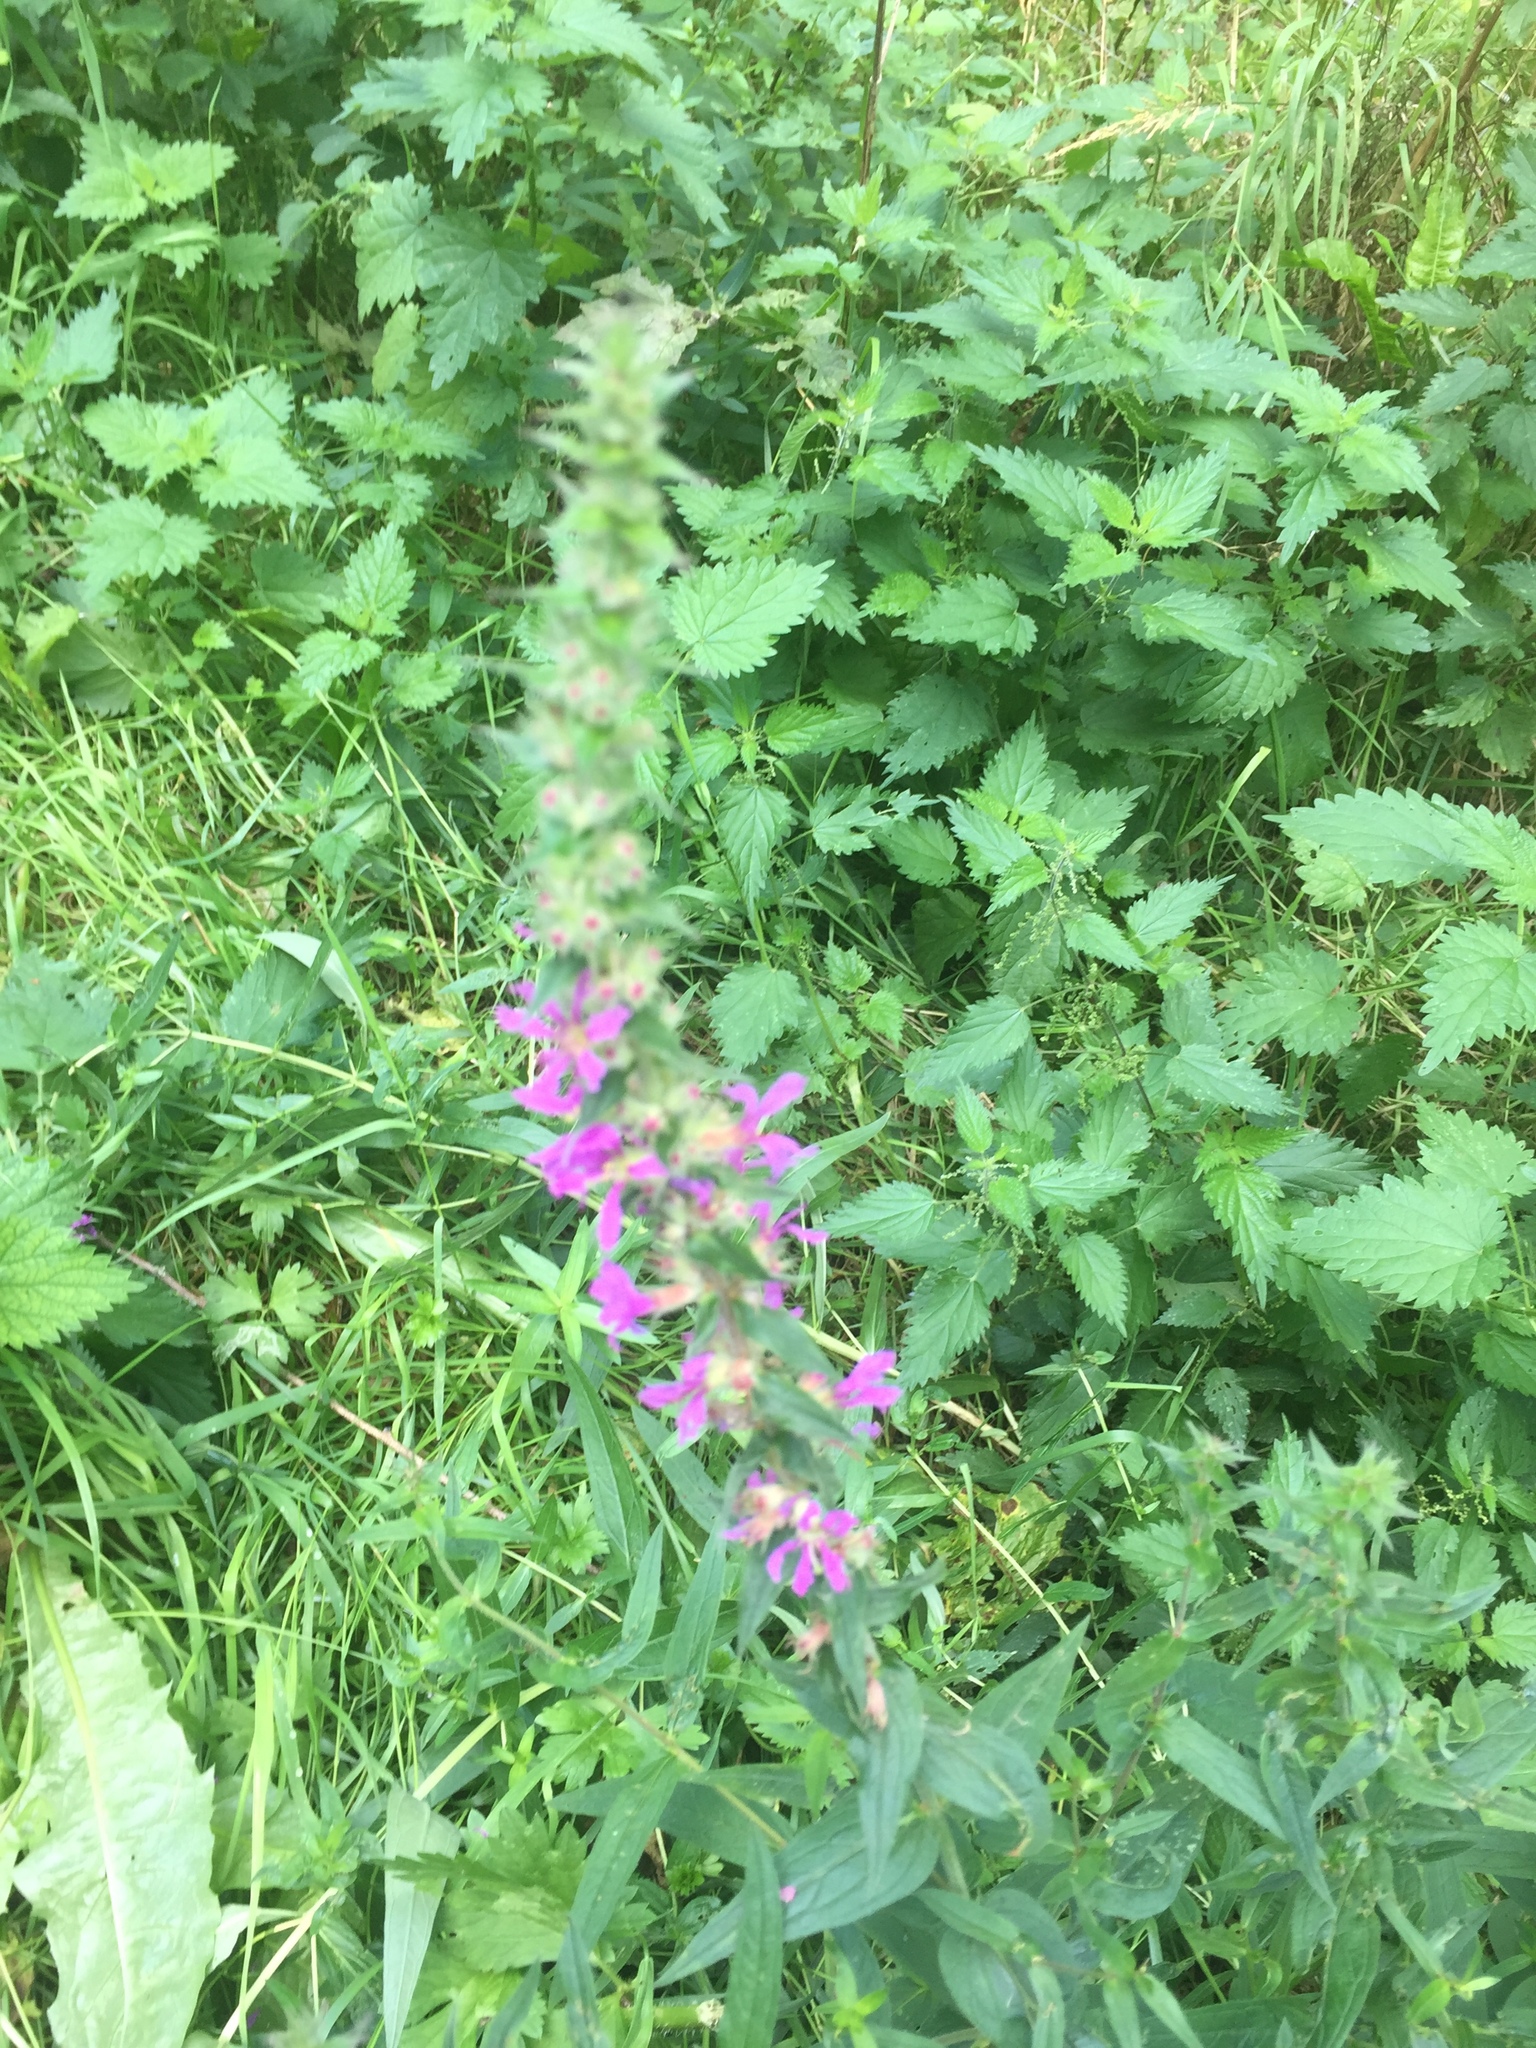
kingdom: Plantae
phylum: Tracheophyta
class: Magnoliopsida
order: Myrtales
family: Lythraceae
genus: Lythrum
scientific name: Lythrum salicaria
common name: Purple loosestrife
